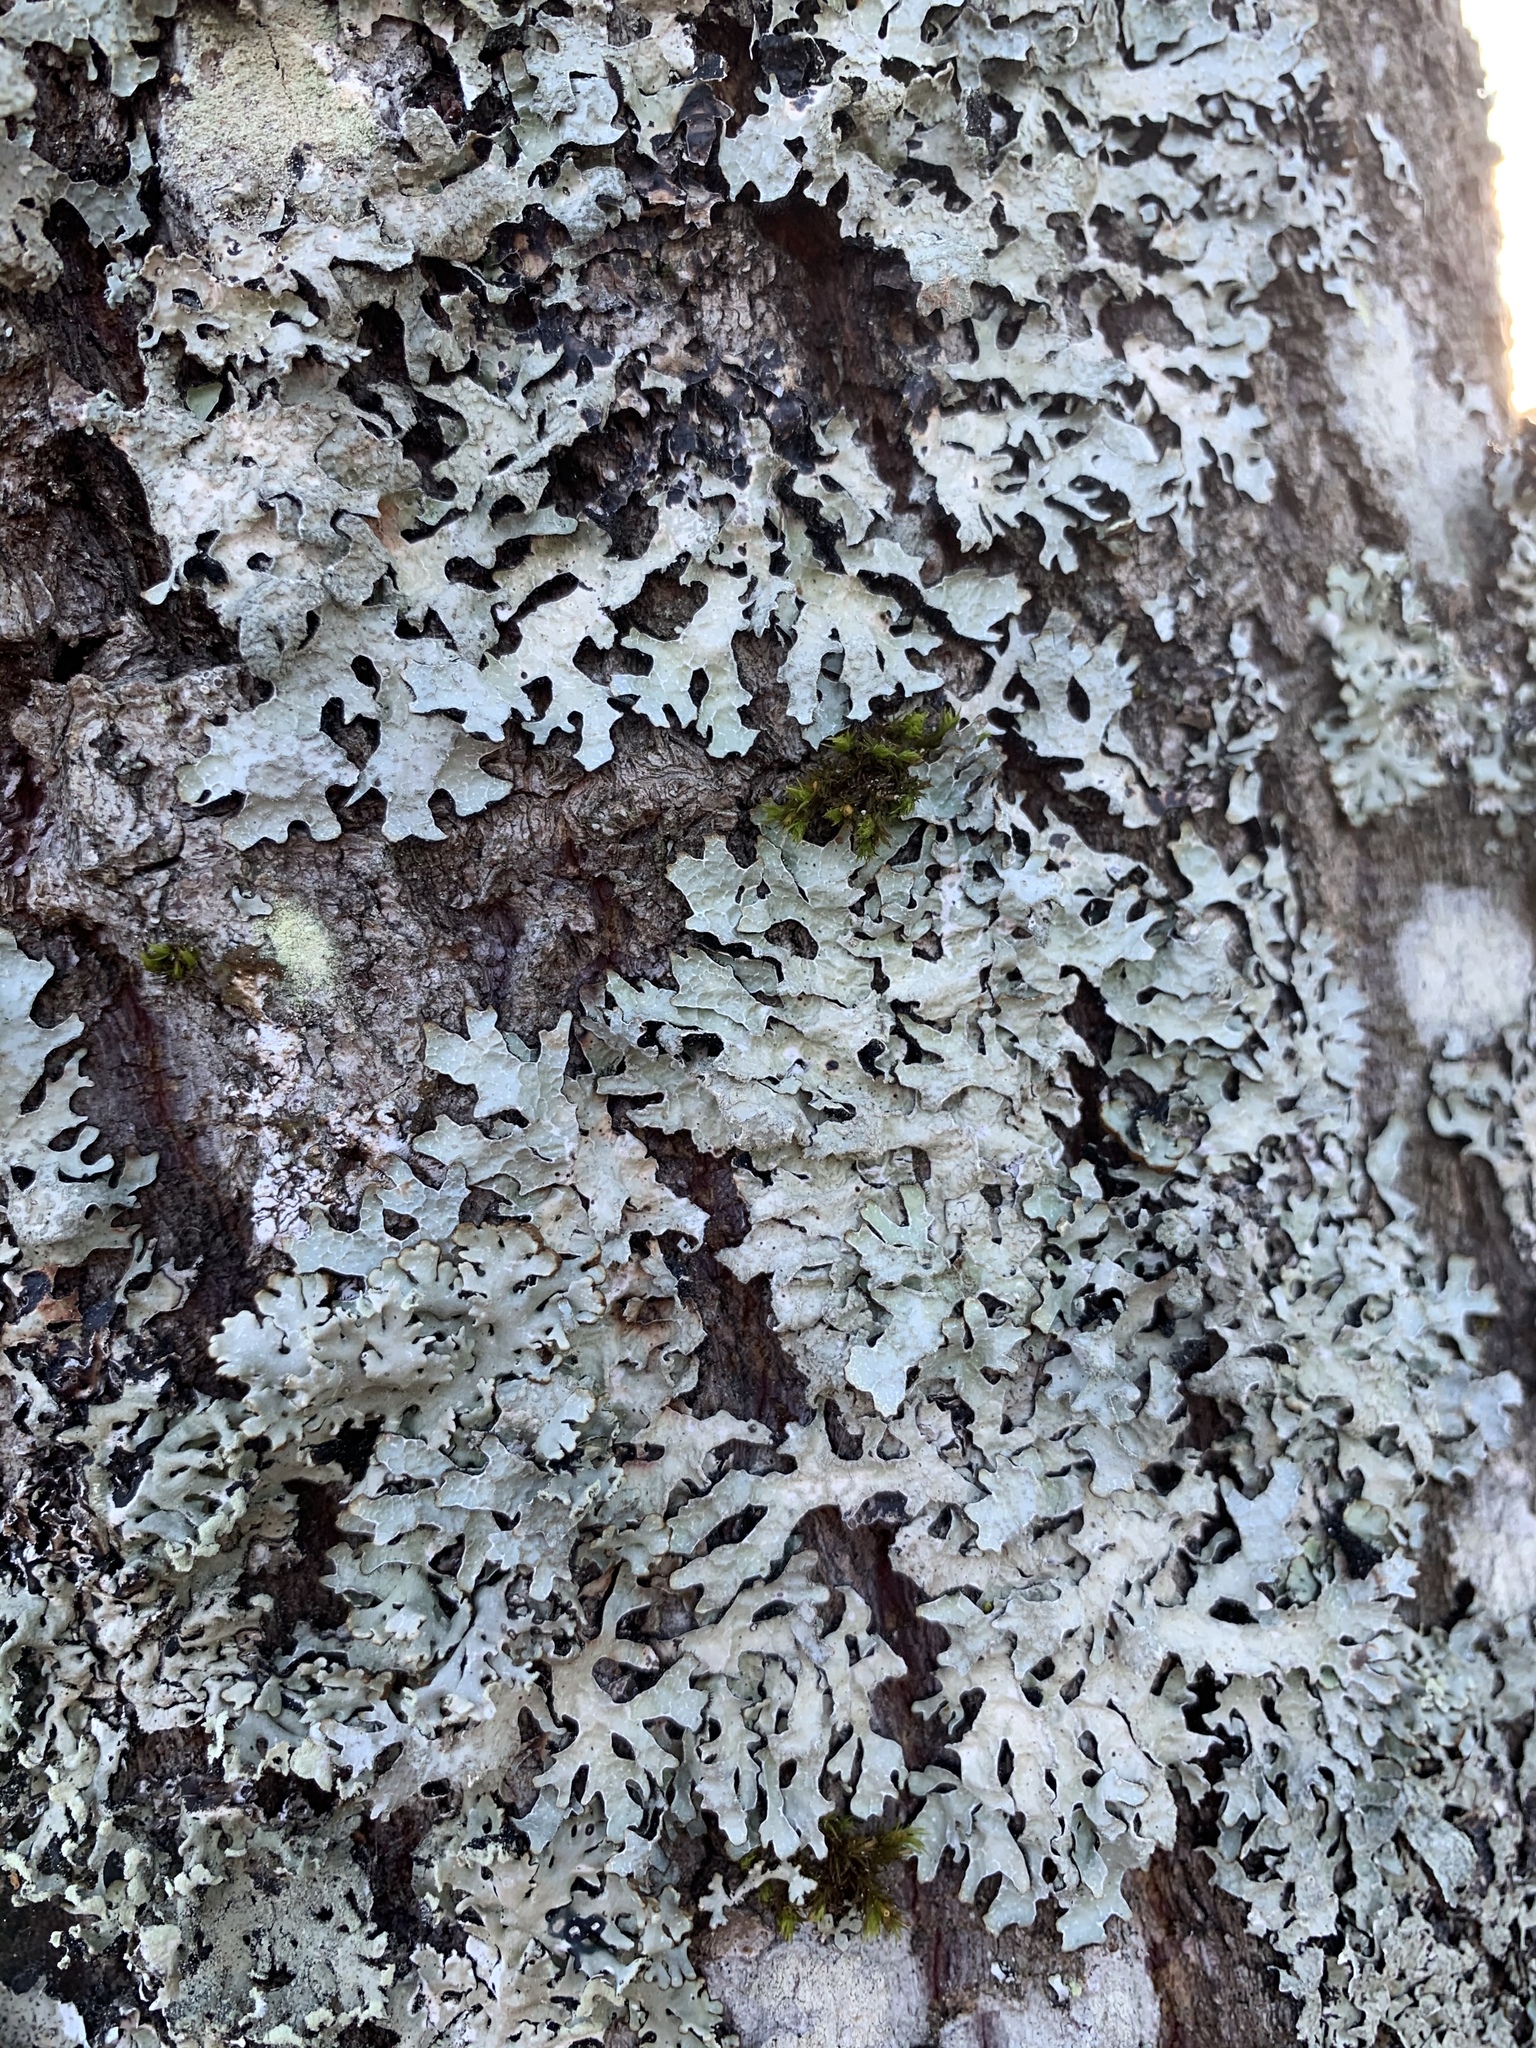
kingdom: Fungi
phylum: Ascomycota
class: Lecanoromycetes
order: Lecanorales
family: Parmeliaceae
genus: Parmelia
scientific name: Parmelia sulcata
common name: Netted shield lichen
